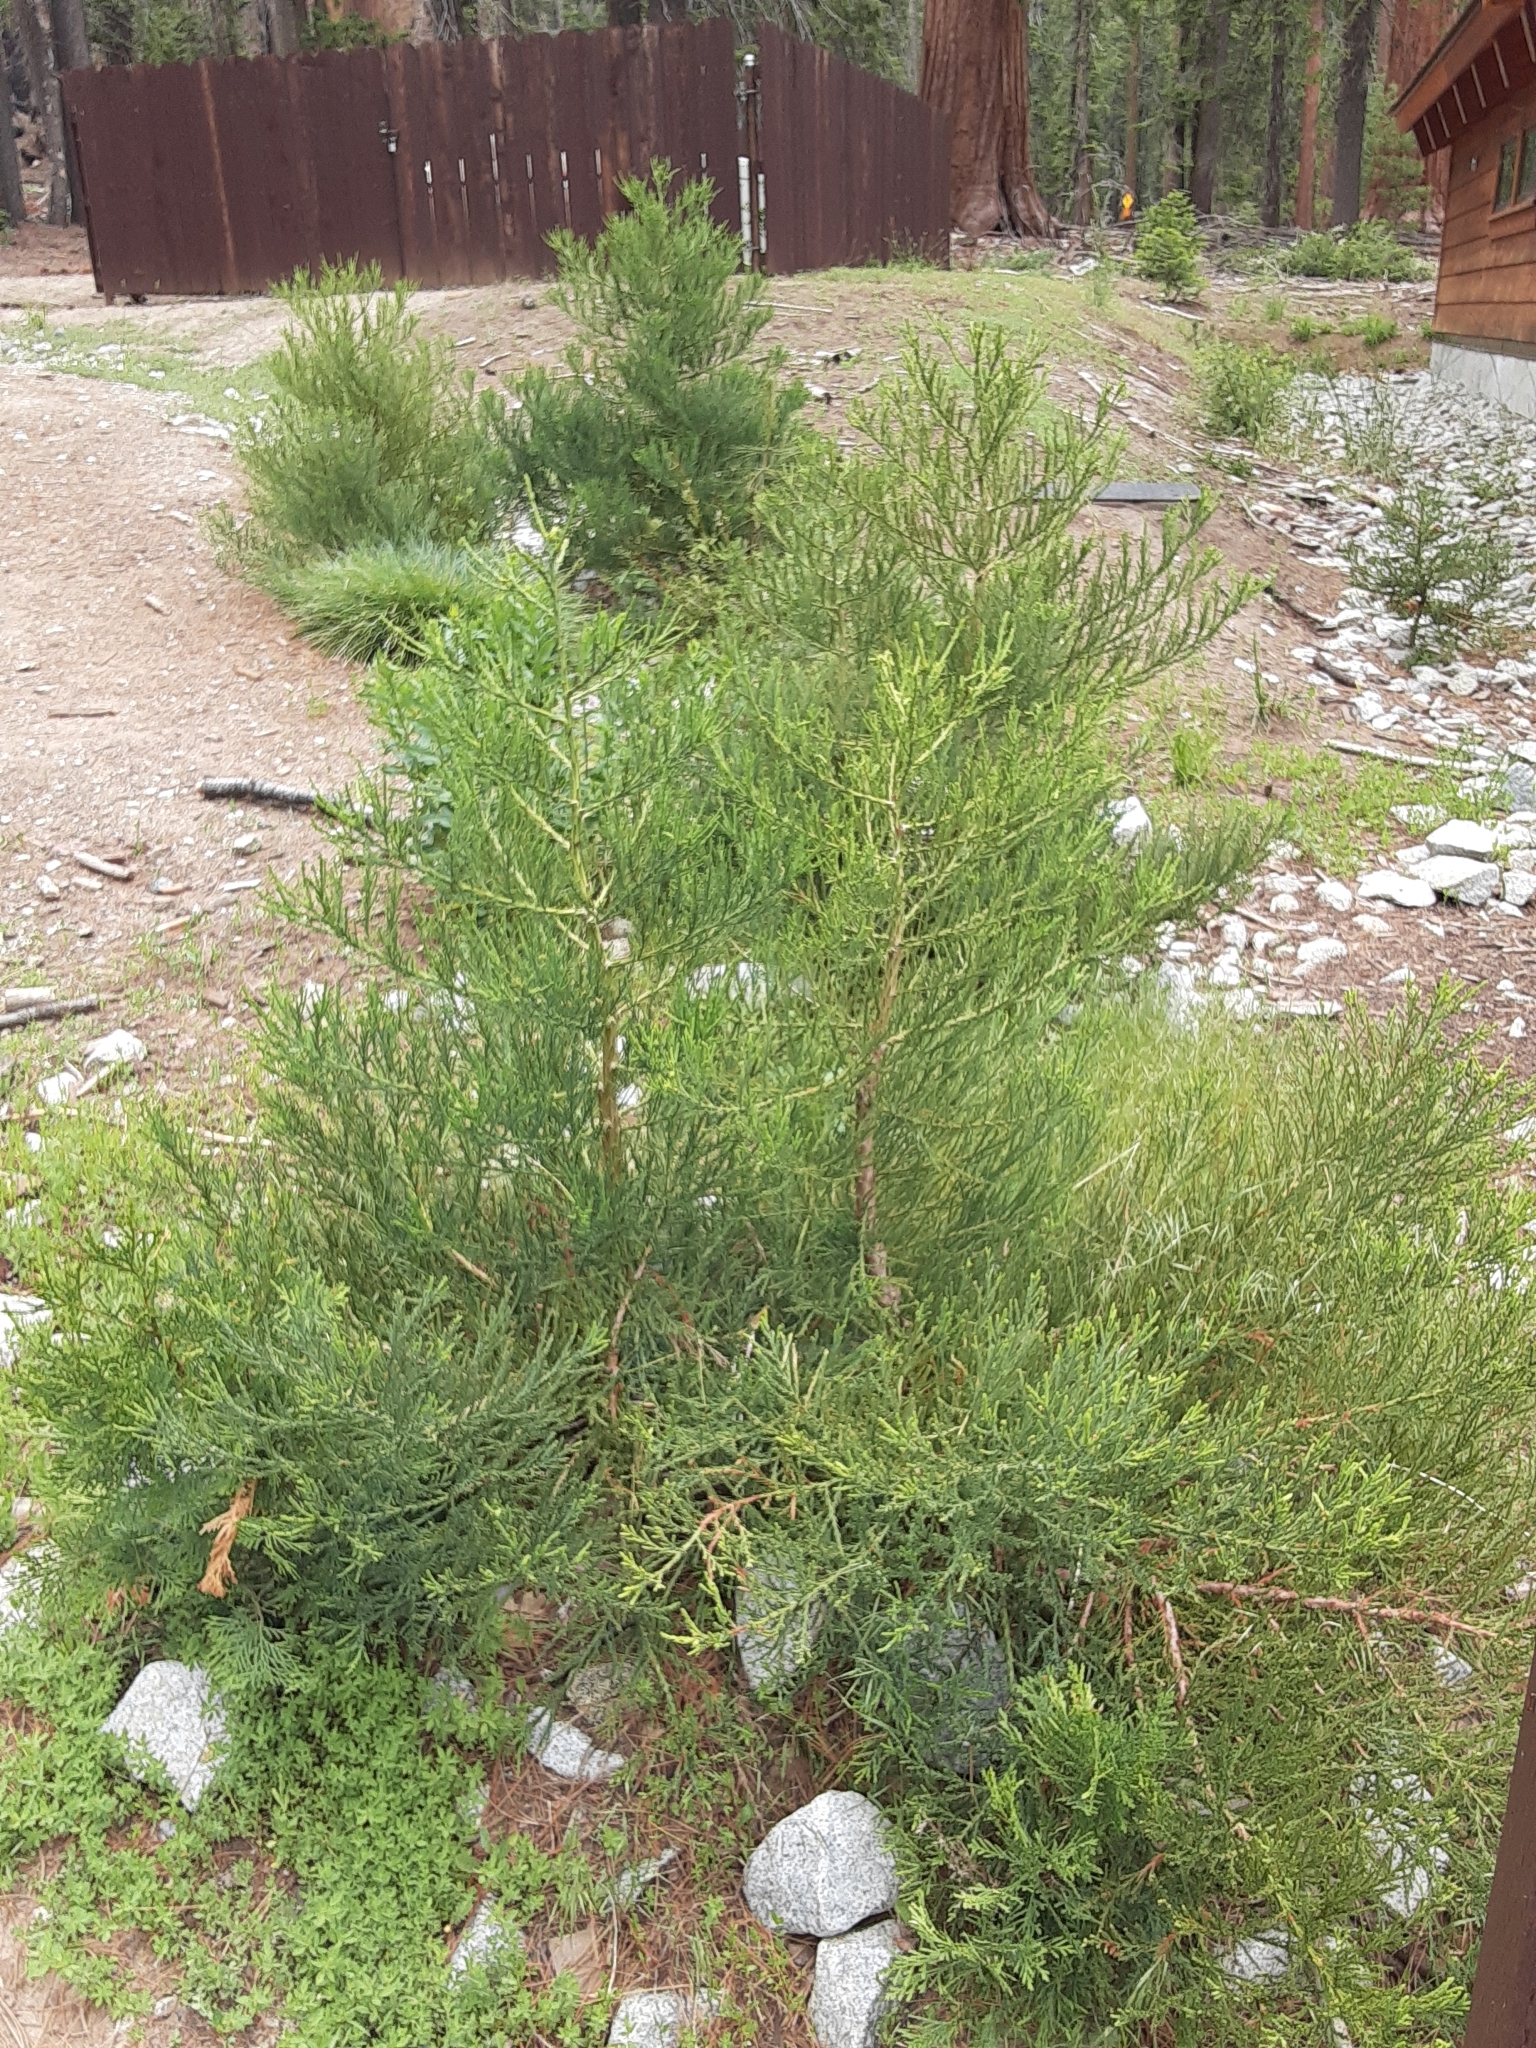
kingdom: Plantae
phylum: Tracheophyta
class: Pinopsida
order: Pinales
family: Cupressaceae
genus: Sequoiadendron
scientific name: Sequoiadendron giganteum
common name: Wellingtonia
